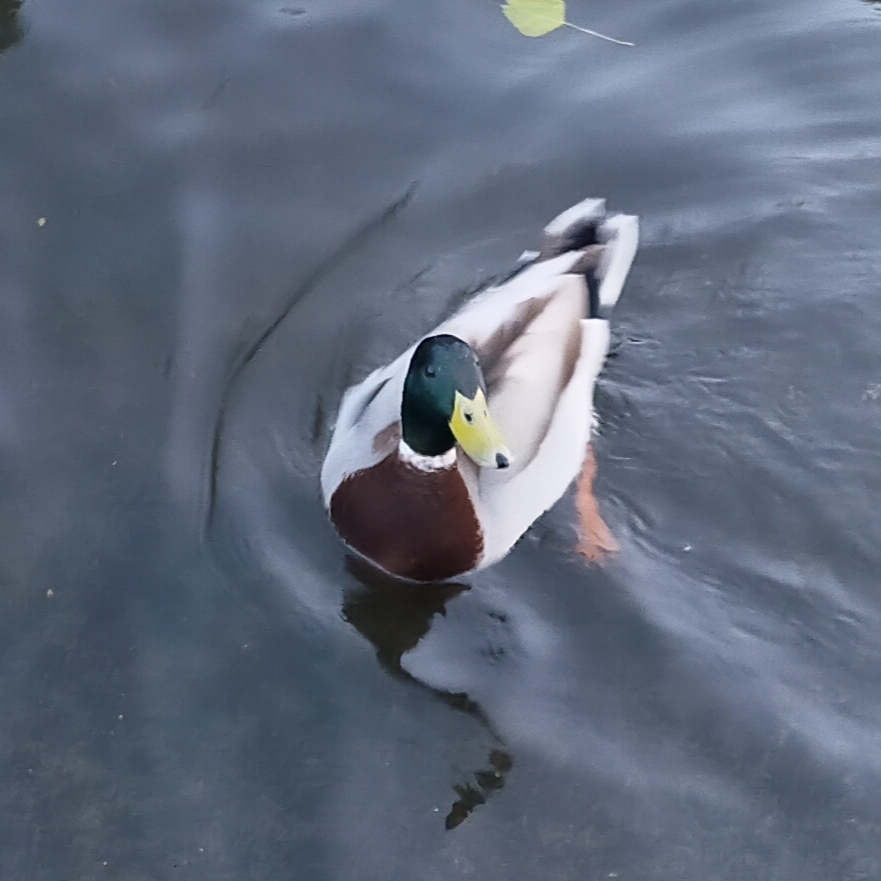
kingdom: Animalia
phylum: Chordata
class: Aves
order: Anseriformes
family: Anatidae
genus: Anas
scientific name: Anas platyrhynchos
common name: Mallard
